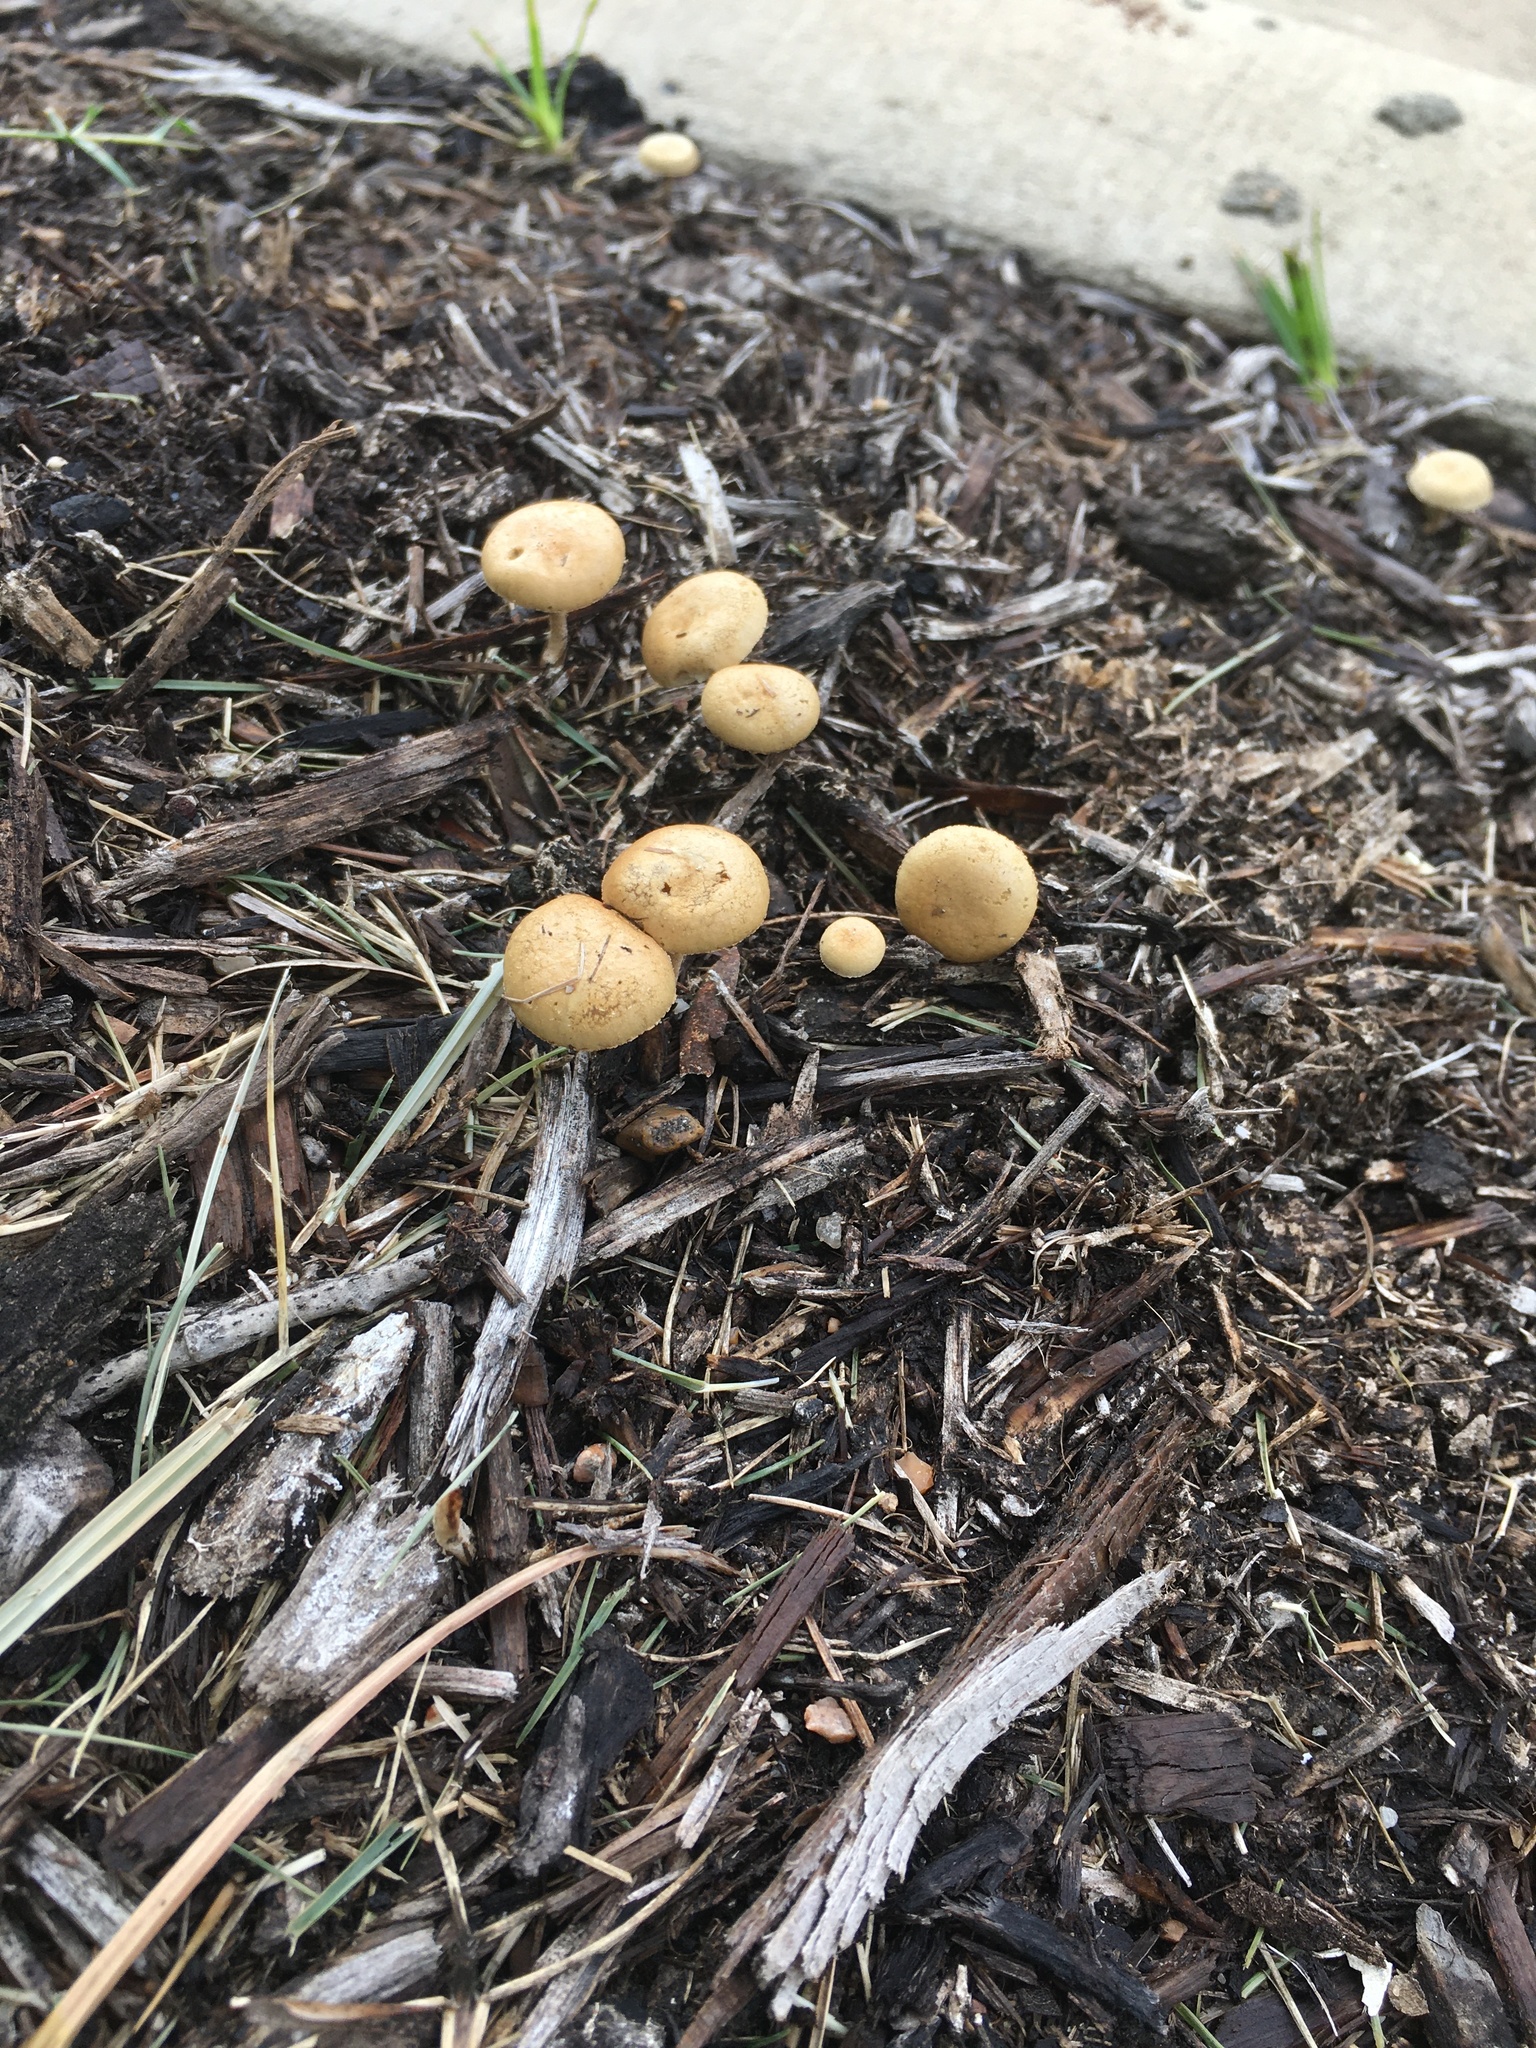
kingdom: Fungi
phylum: Basidiomycota
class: Agaricomycetes
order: Agaricales
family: Strophariaceae
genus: Agrocybe
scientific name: Agrocybe pediades
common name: Common fieldcap
